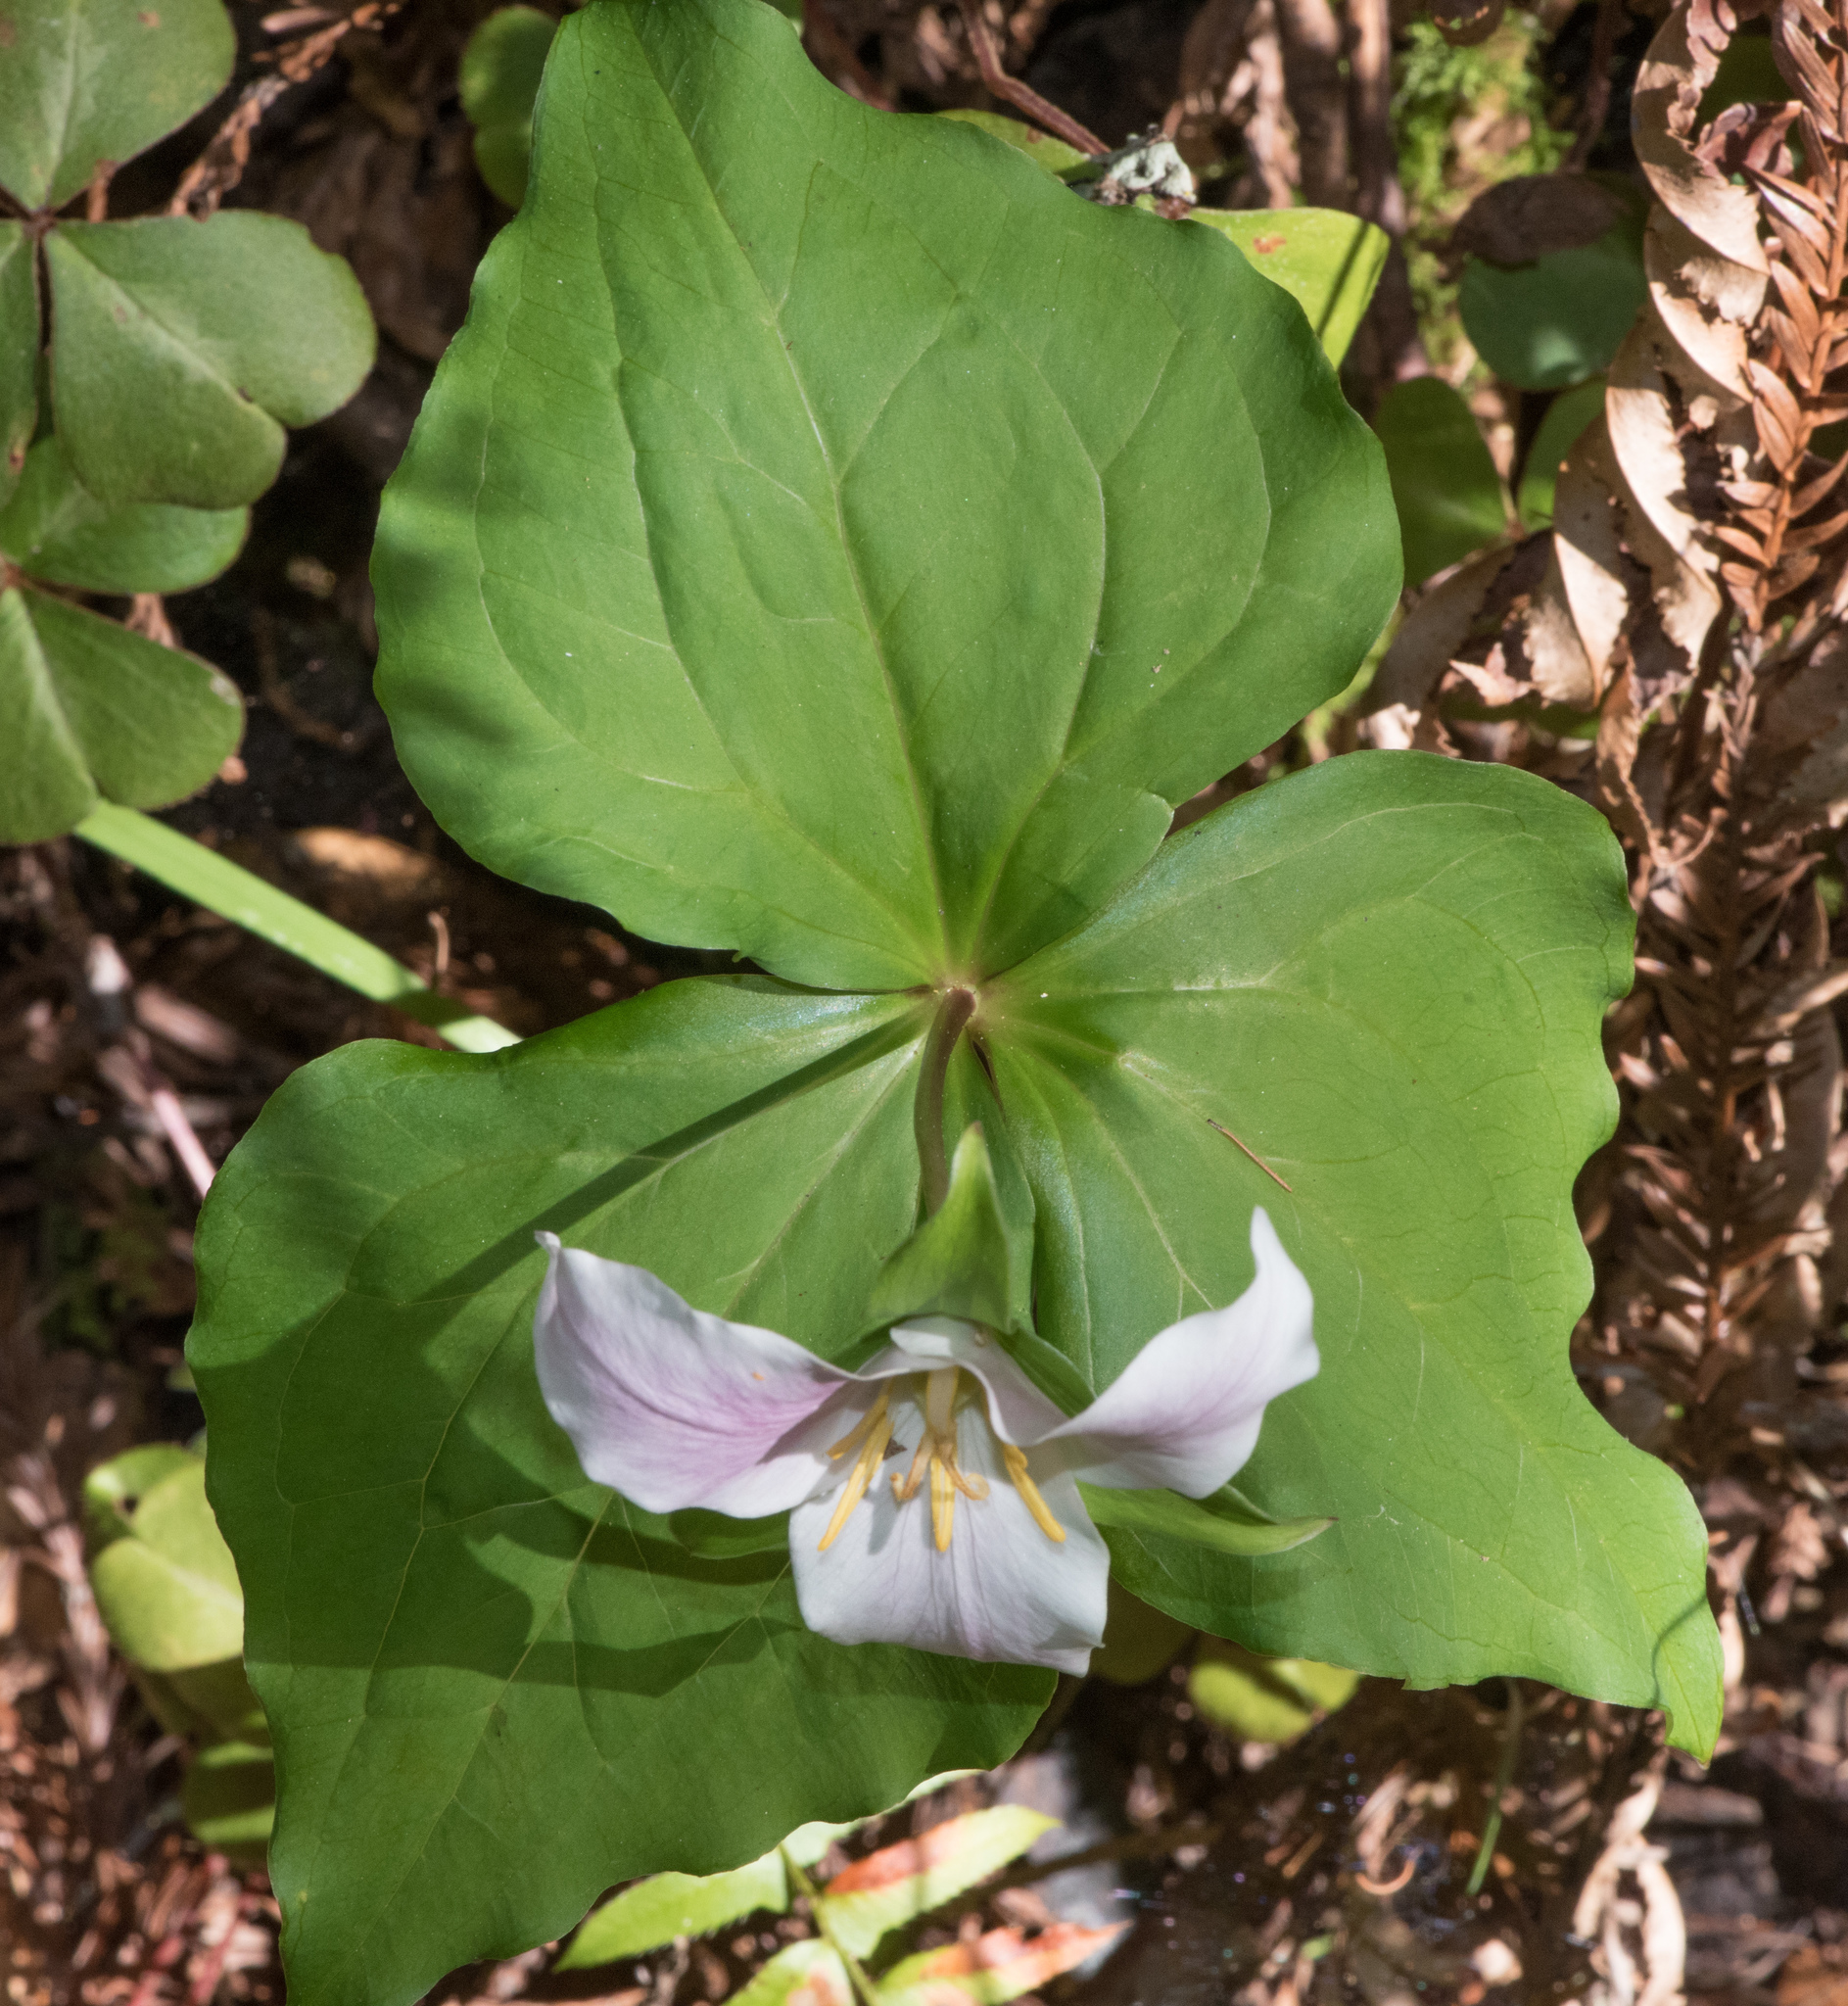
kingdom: Plantae
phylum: Tracheophyta
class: Liliopsida
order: Liliales
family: Melanthiaceae
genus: Trillium
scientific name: Trillium ovatum
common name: Pacific trillium
